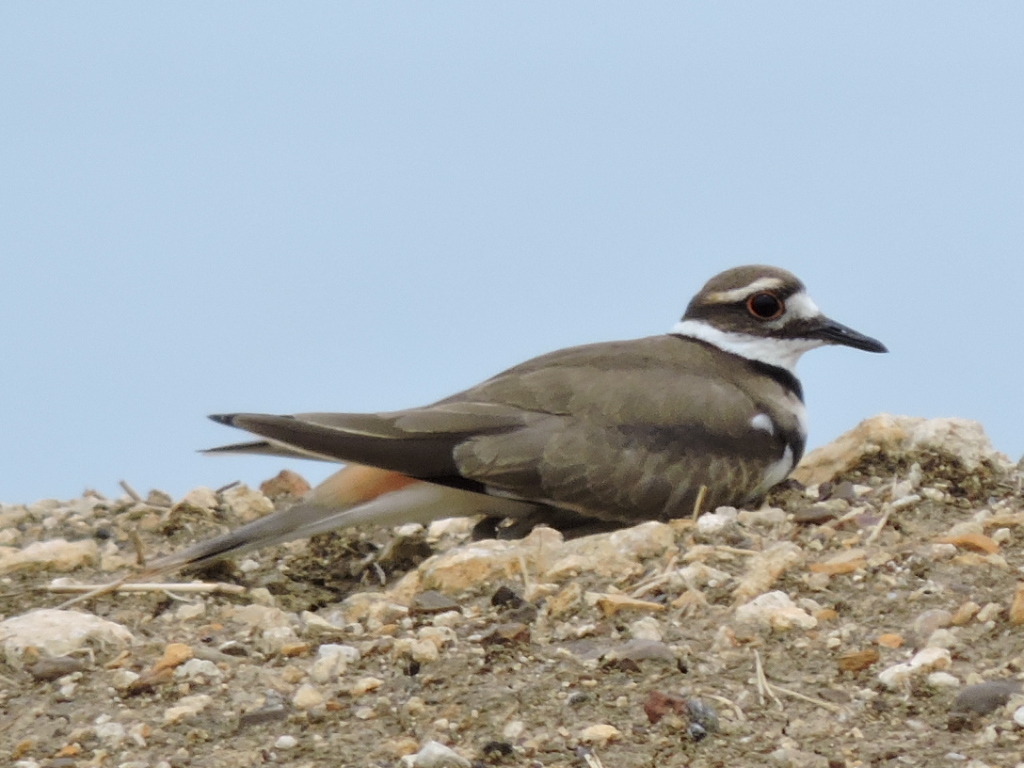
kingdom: Animalia
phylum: Chordata
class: Aves
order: Charadriiformes
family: Charadriidae
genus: Charadrius
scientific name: Charadrius vociferus
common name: Killdeer
